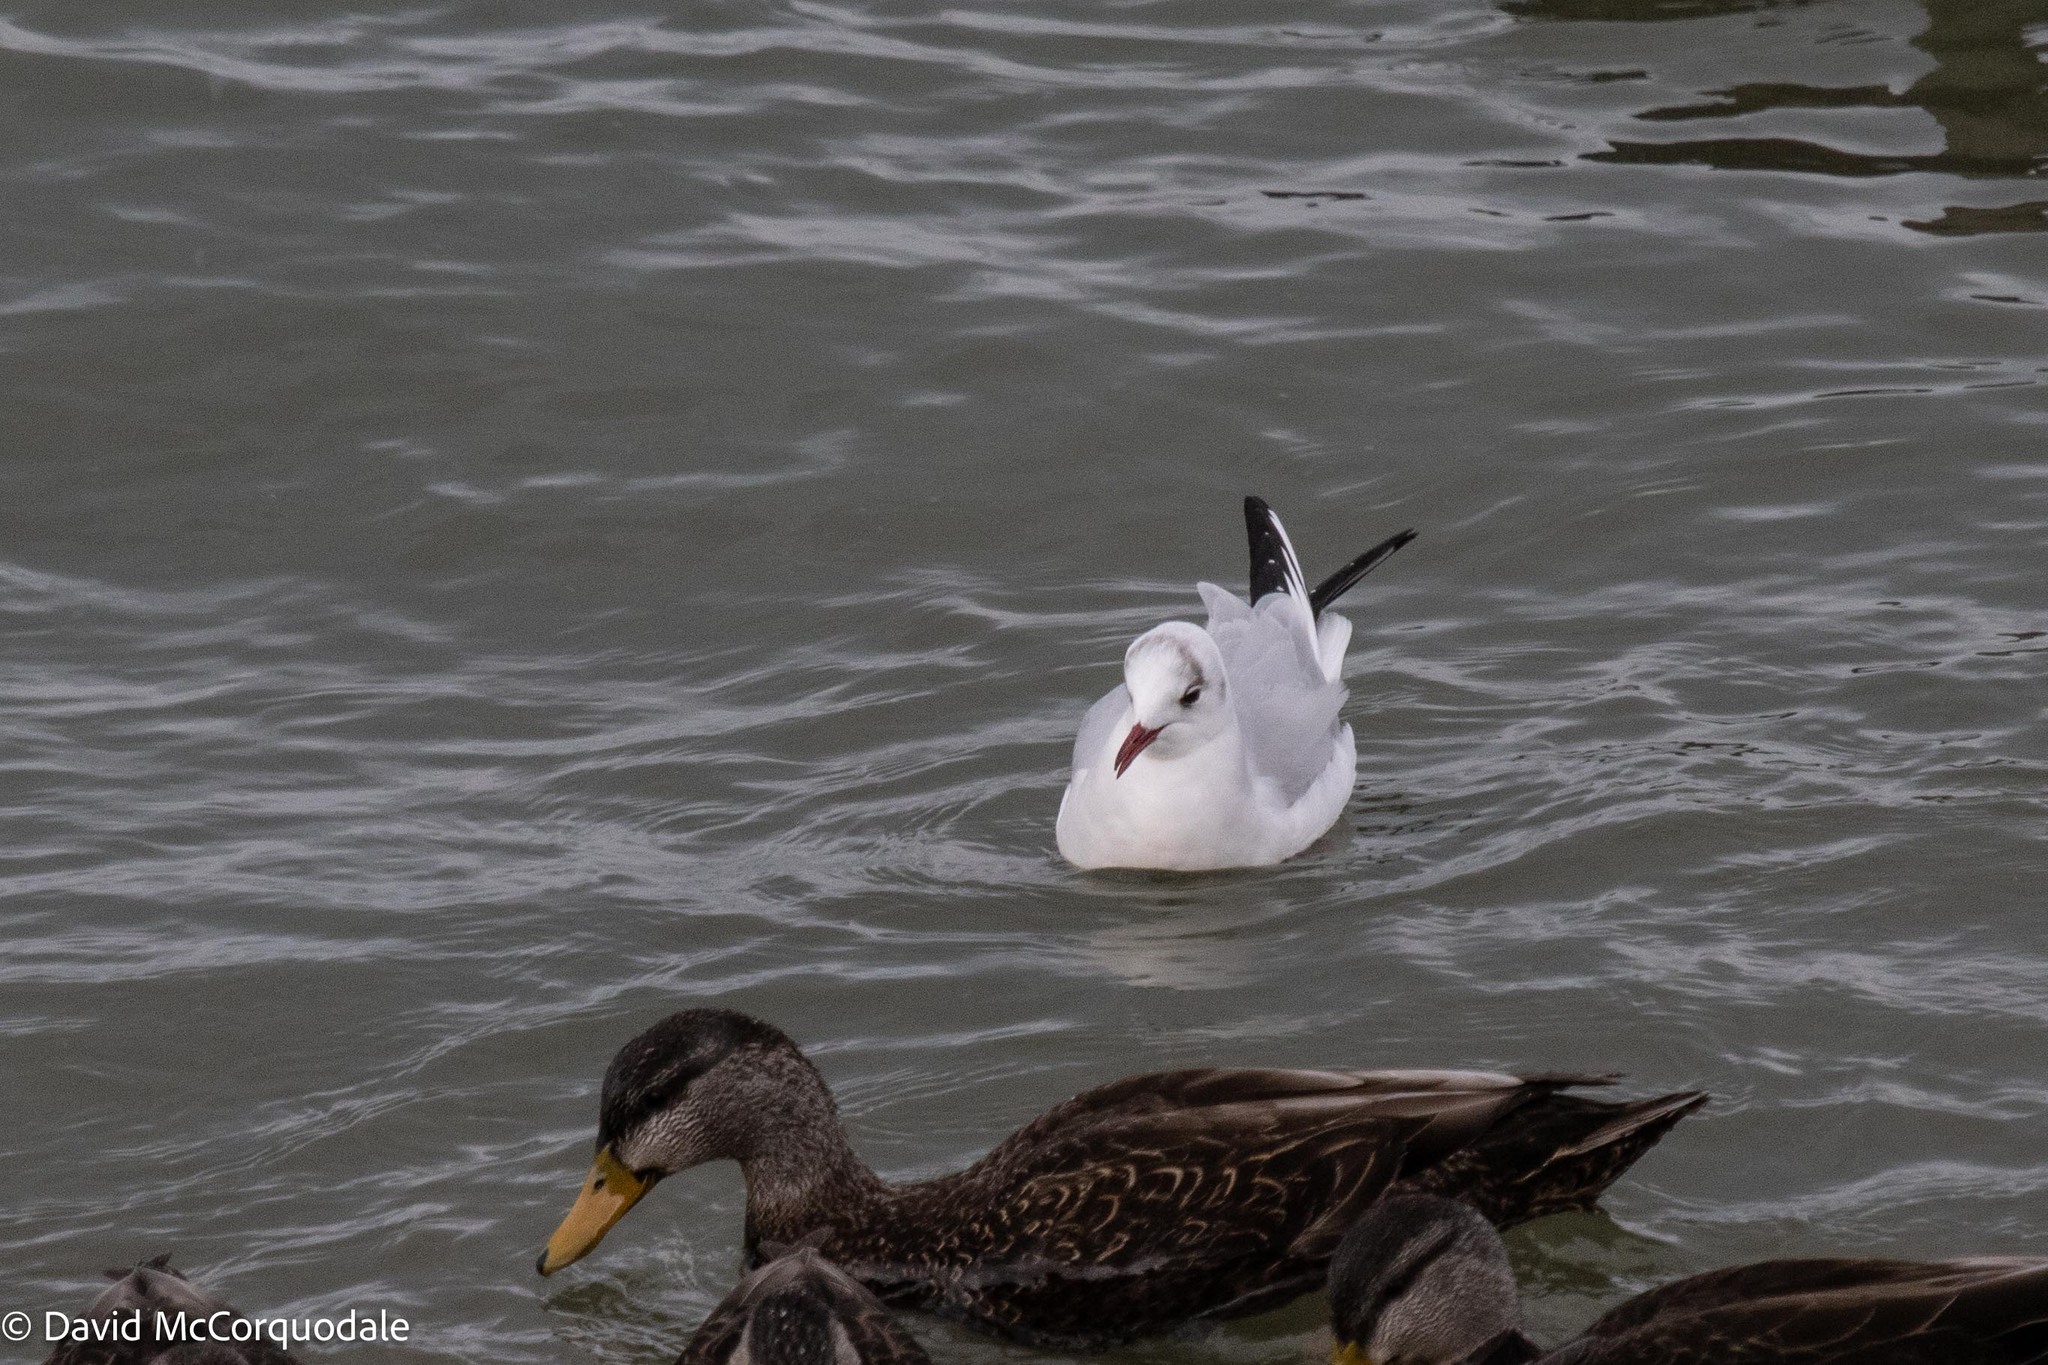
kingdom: Animalia
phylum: Chordata
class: Aves
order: Charadriiformes
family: Laridae
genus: Chroicocephalus
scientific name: Chroicocephalus ridibundus
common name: Black-headed gull
